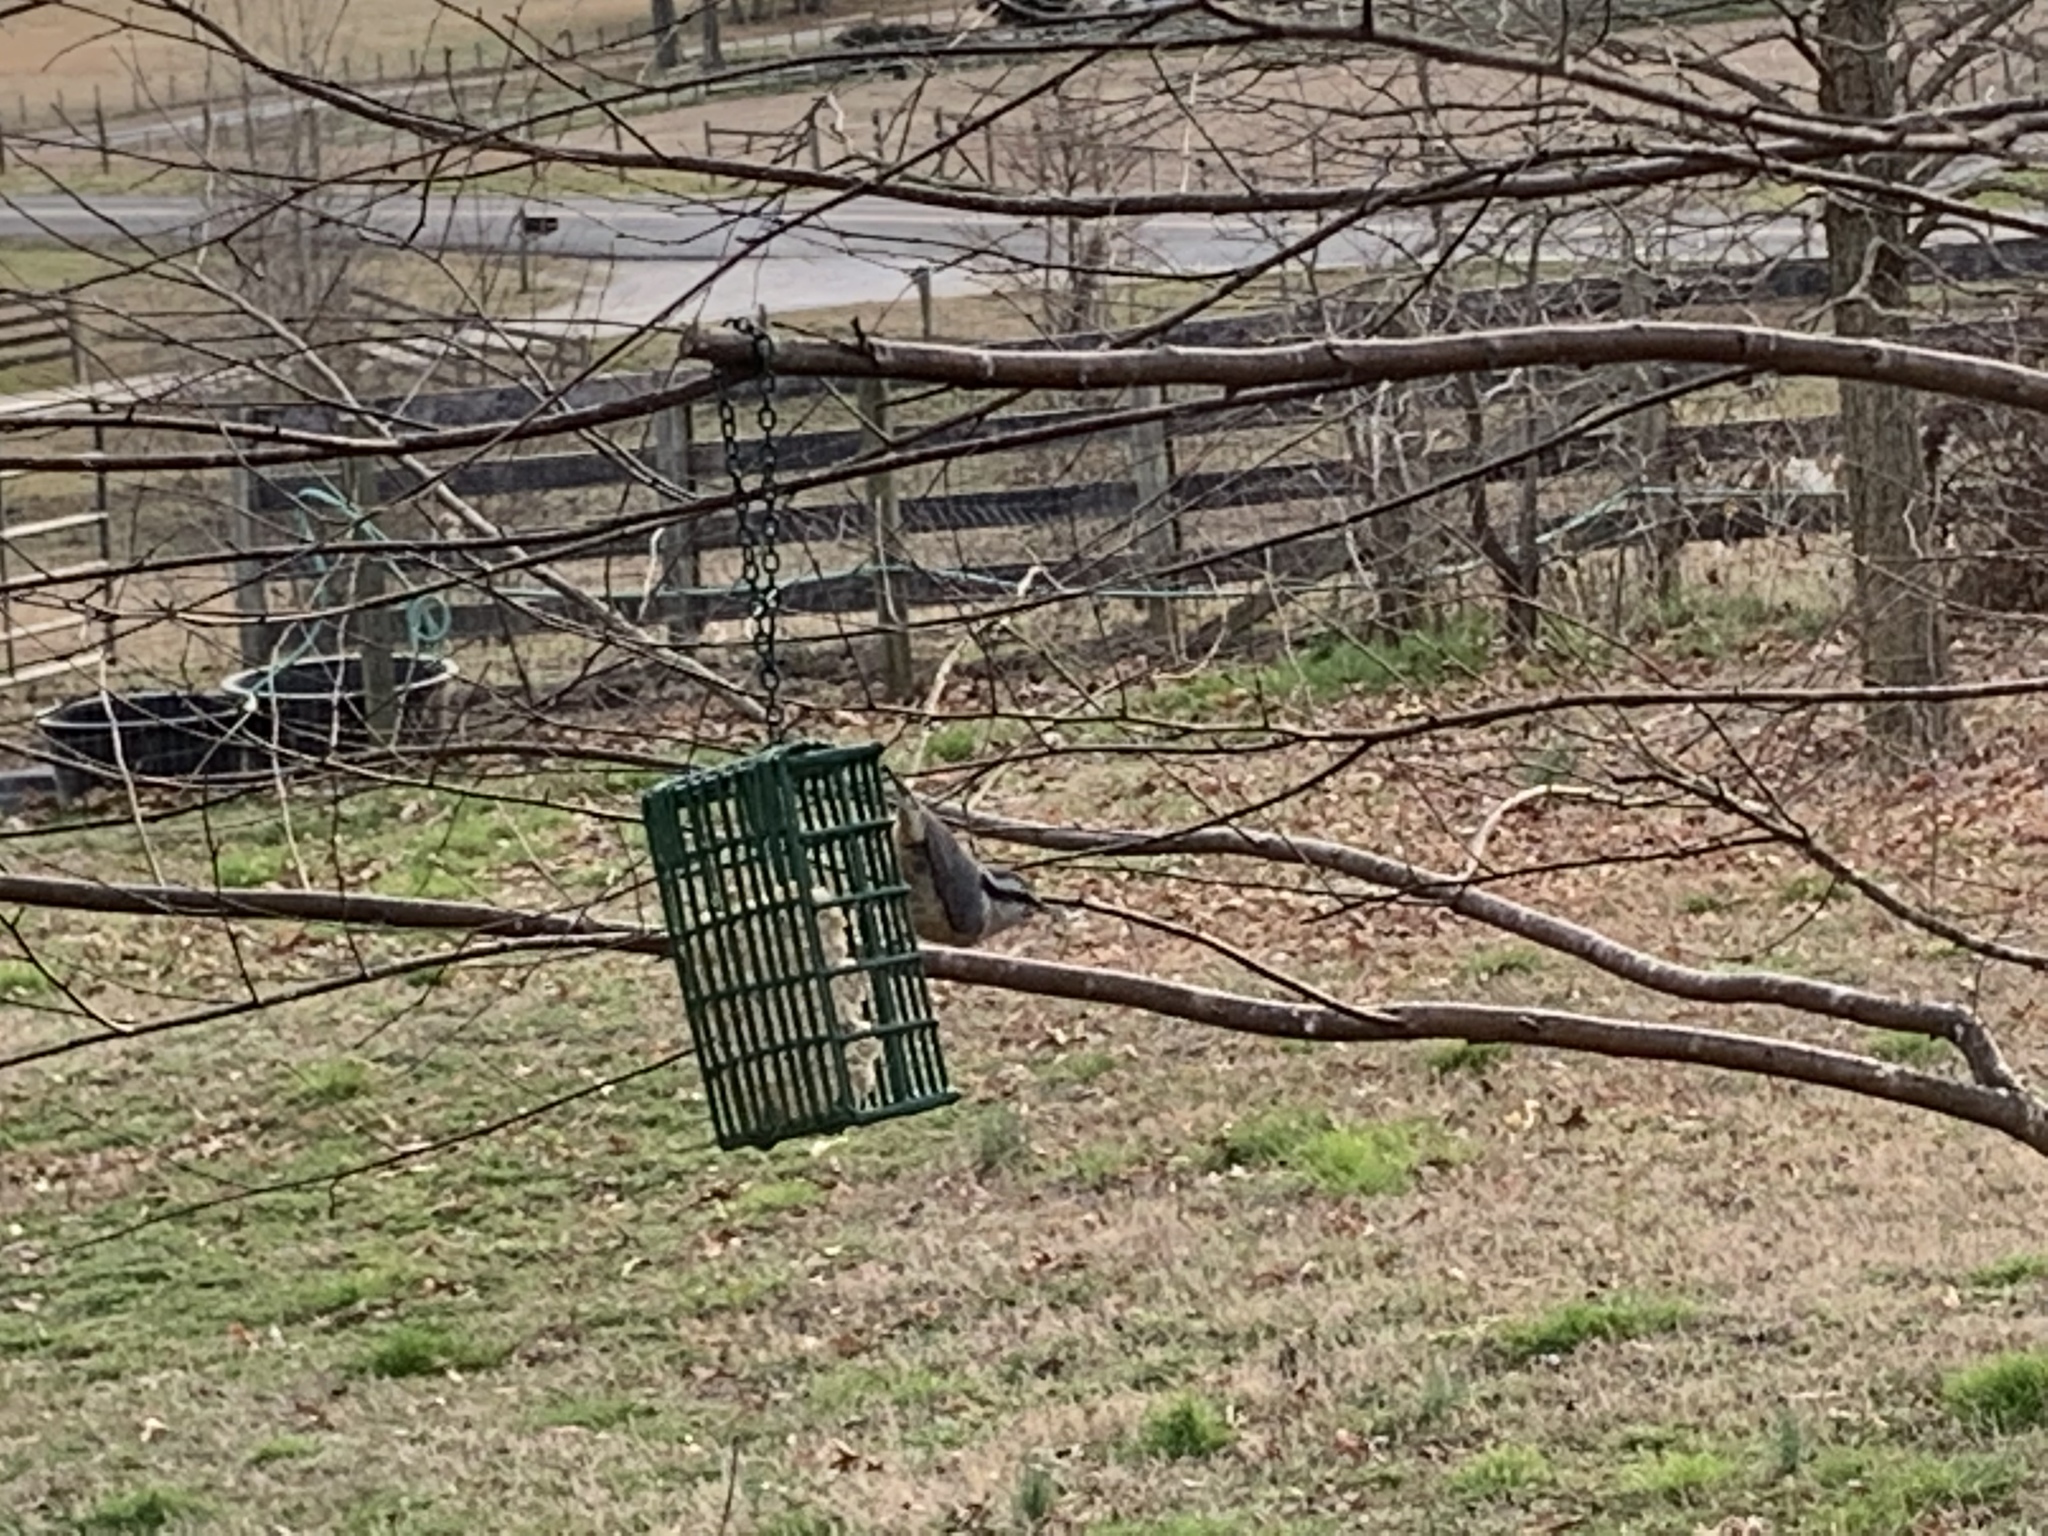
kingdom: Animalia
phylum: Chordata
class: Aves
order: Passeriformes
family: Sittidae
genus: Sitta
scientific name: Sitta canadensis
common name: Red-breasted nuthatch
